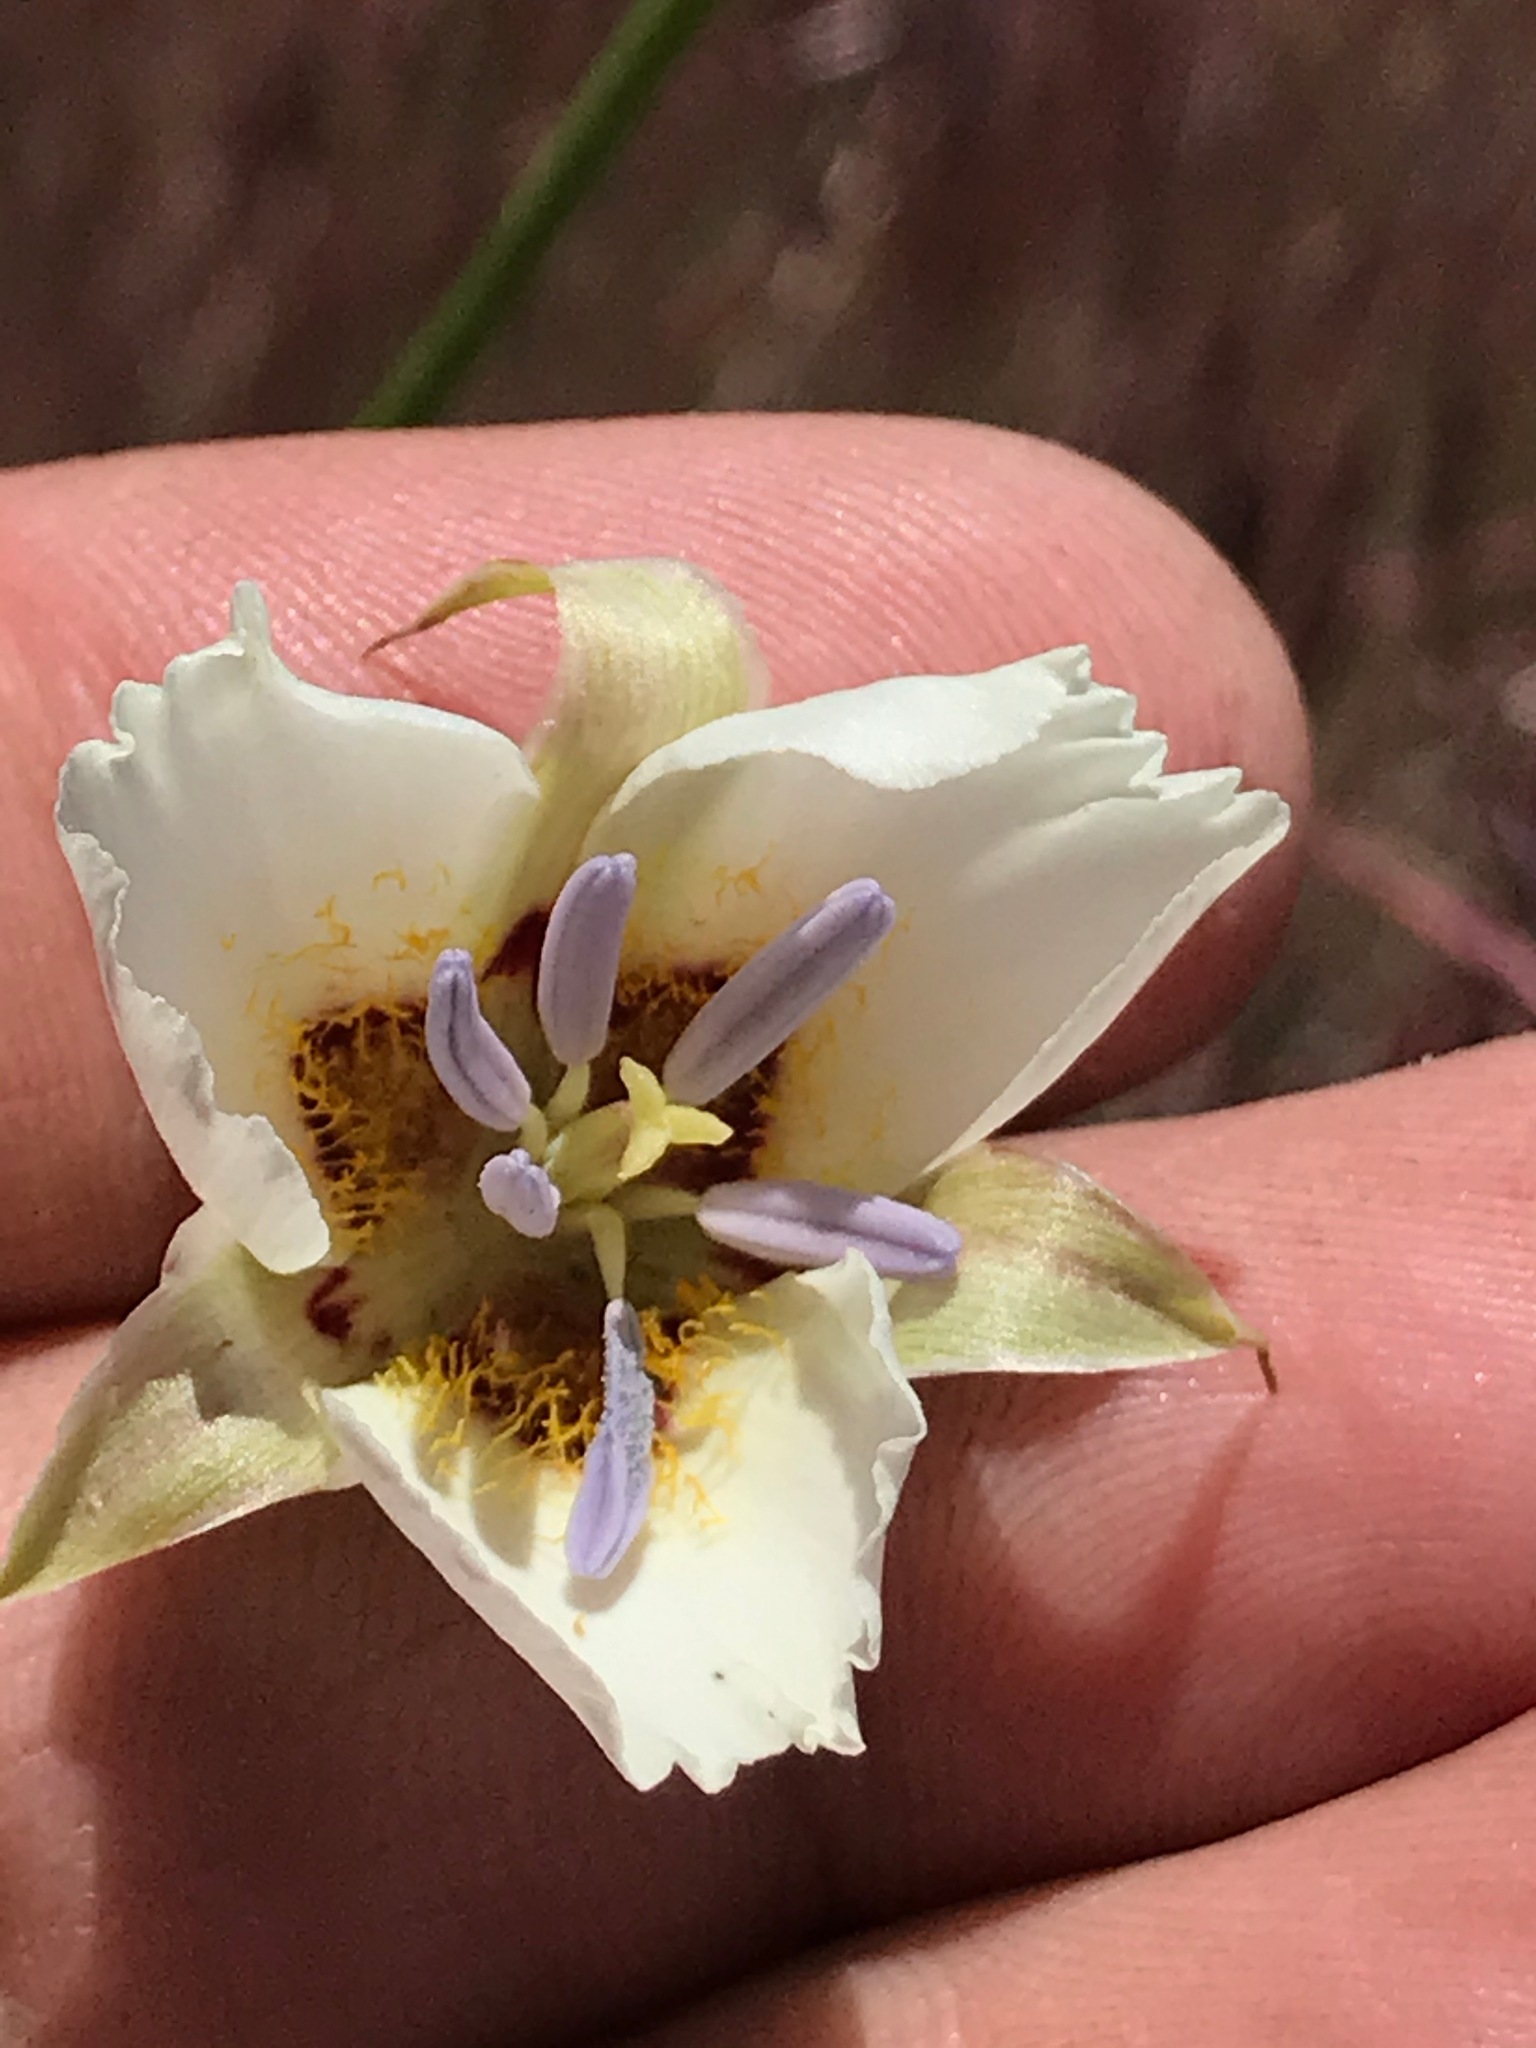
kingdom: Plantae
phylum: Tracheophyta
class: Liliopsida
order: Liliales
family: Liliaceae
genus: Calochortus
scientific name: Calochortus palmeri
